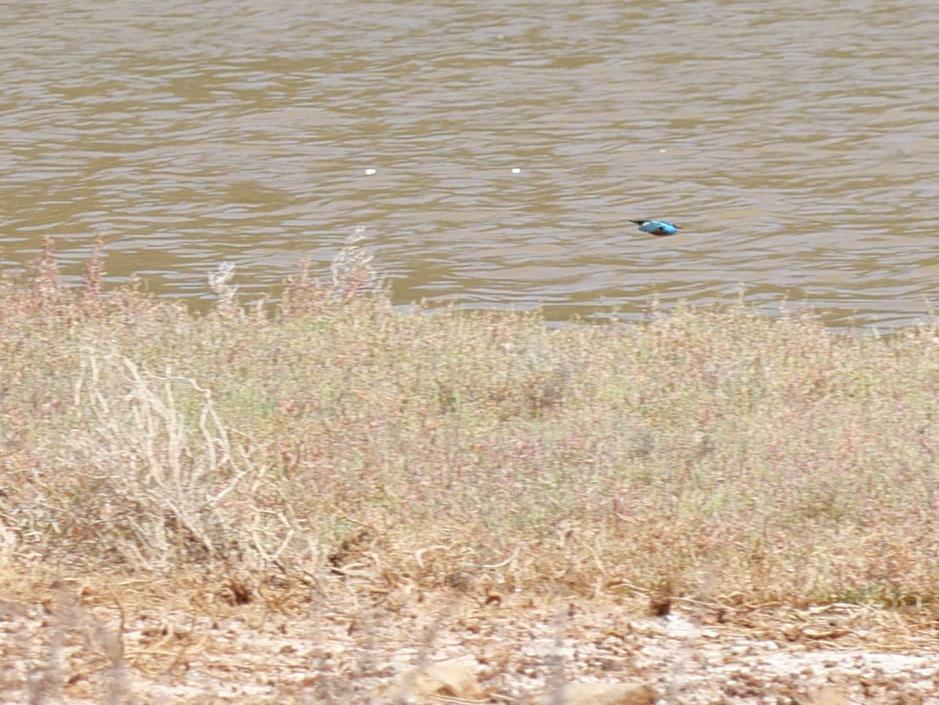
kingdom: Animalia
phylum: Chordata
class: Aves
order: Coraciiformes
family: Alcedinidae
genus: Alcedo
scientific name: Alcedo atthis
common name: Common kingfisher
